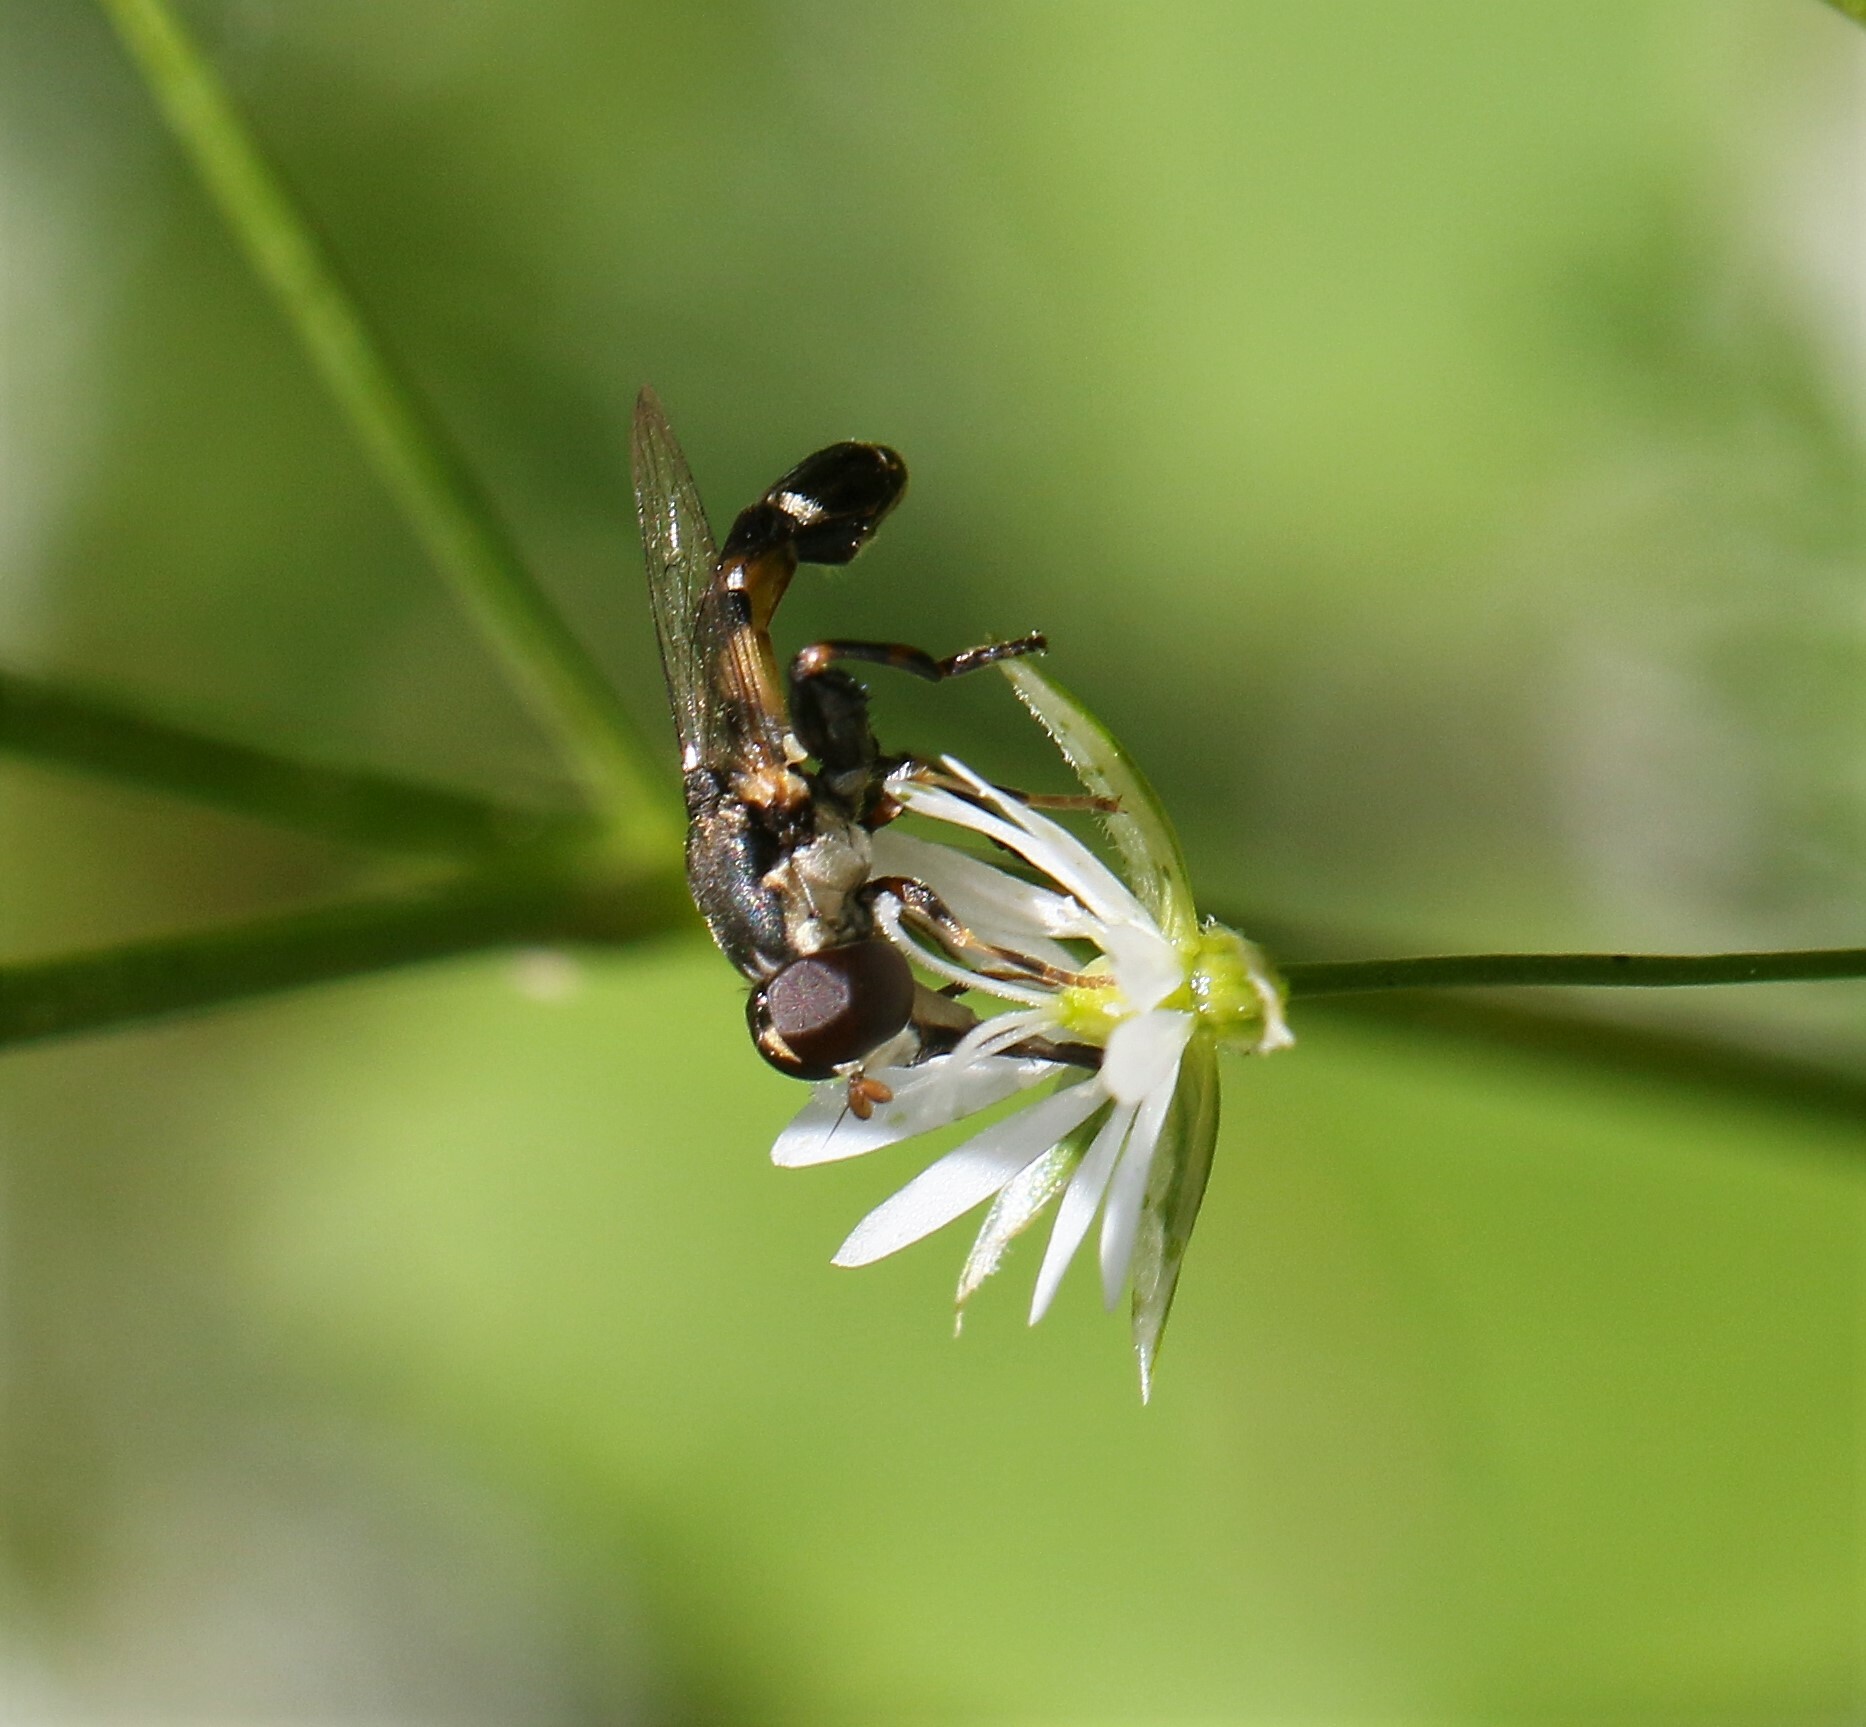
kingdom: Animalia
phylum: Arthropoda
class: Insecta
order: Diptera
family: Syrphidae
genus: Syritta
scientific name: Syritta pipiens
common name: Hover fly
